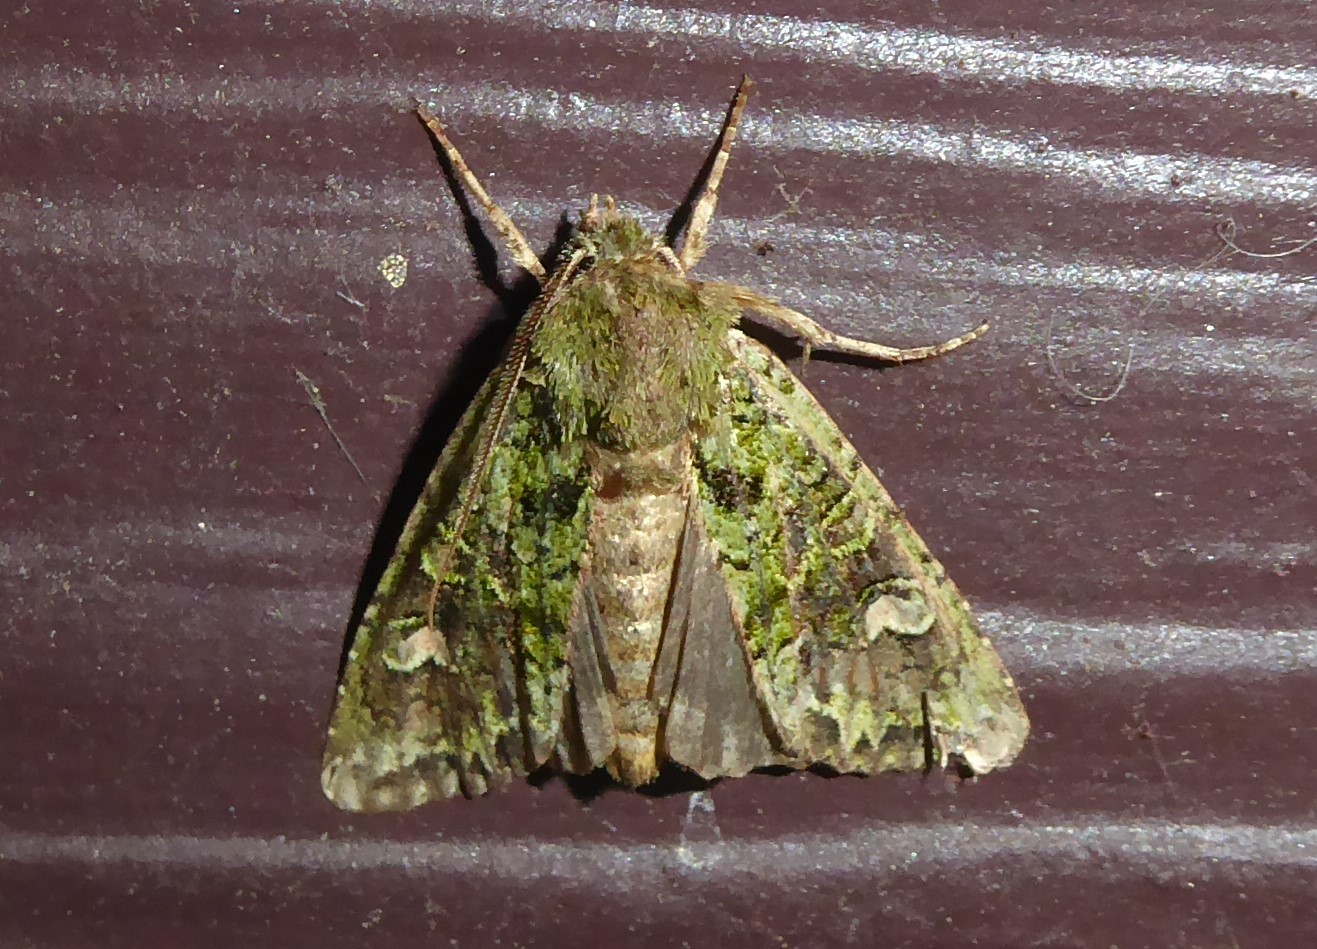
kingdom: Animalia
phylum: Arthropoda
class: Insecta
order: Lepidoptera
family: Noctuidae
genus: Ichneutica
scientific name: Ichneutica
